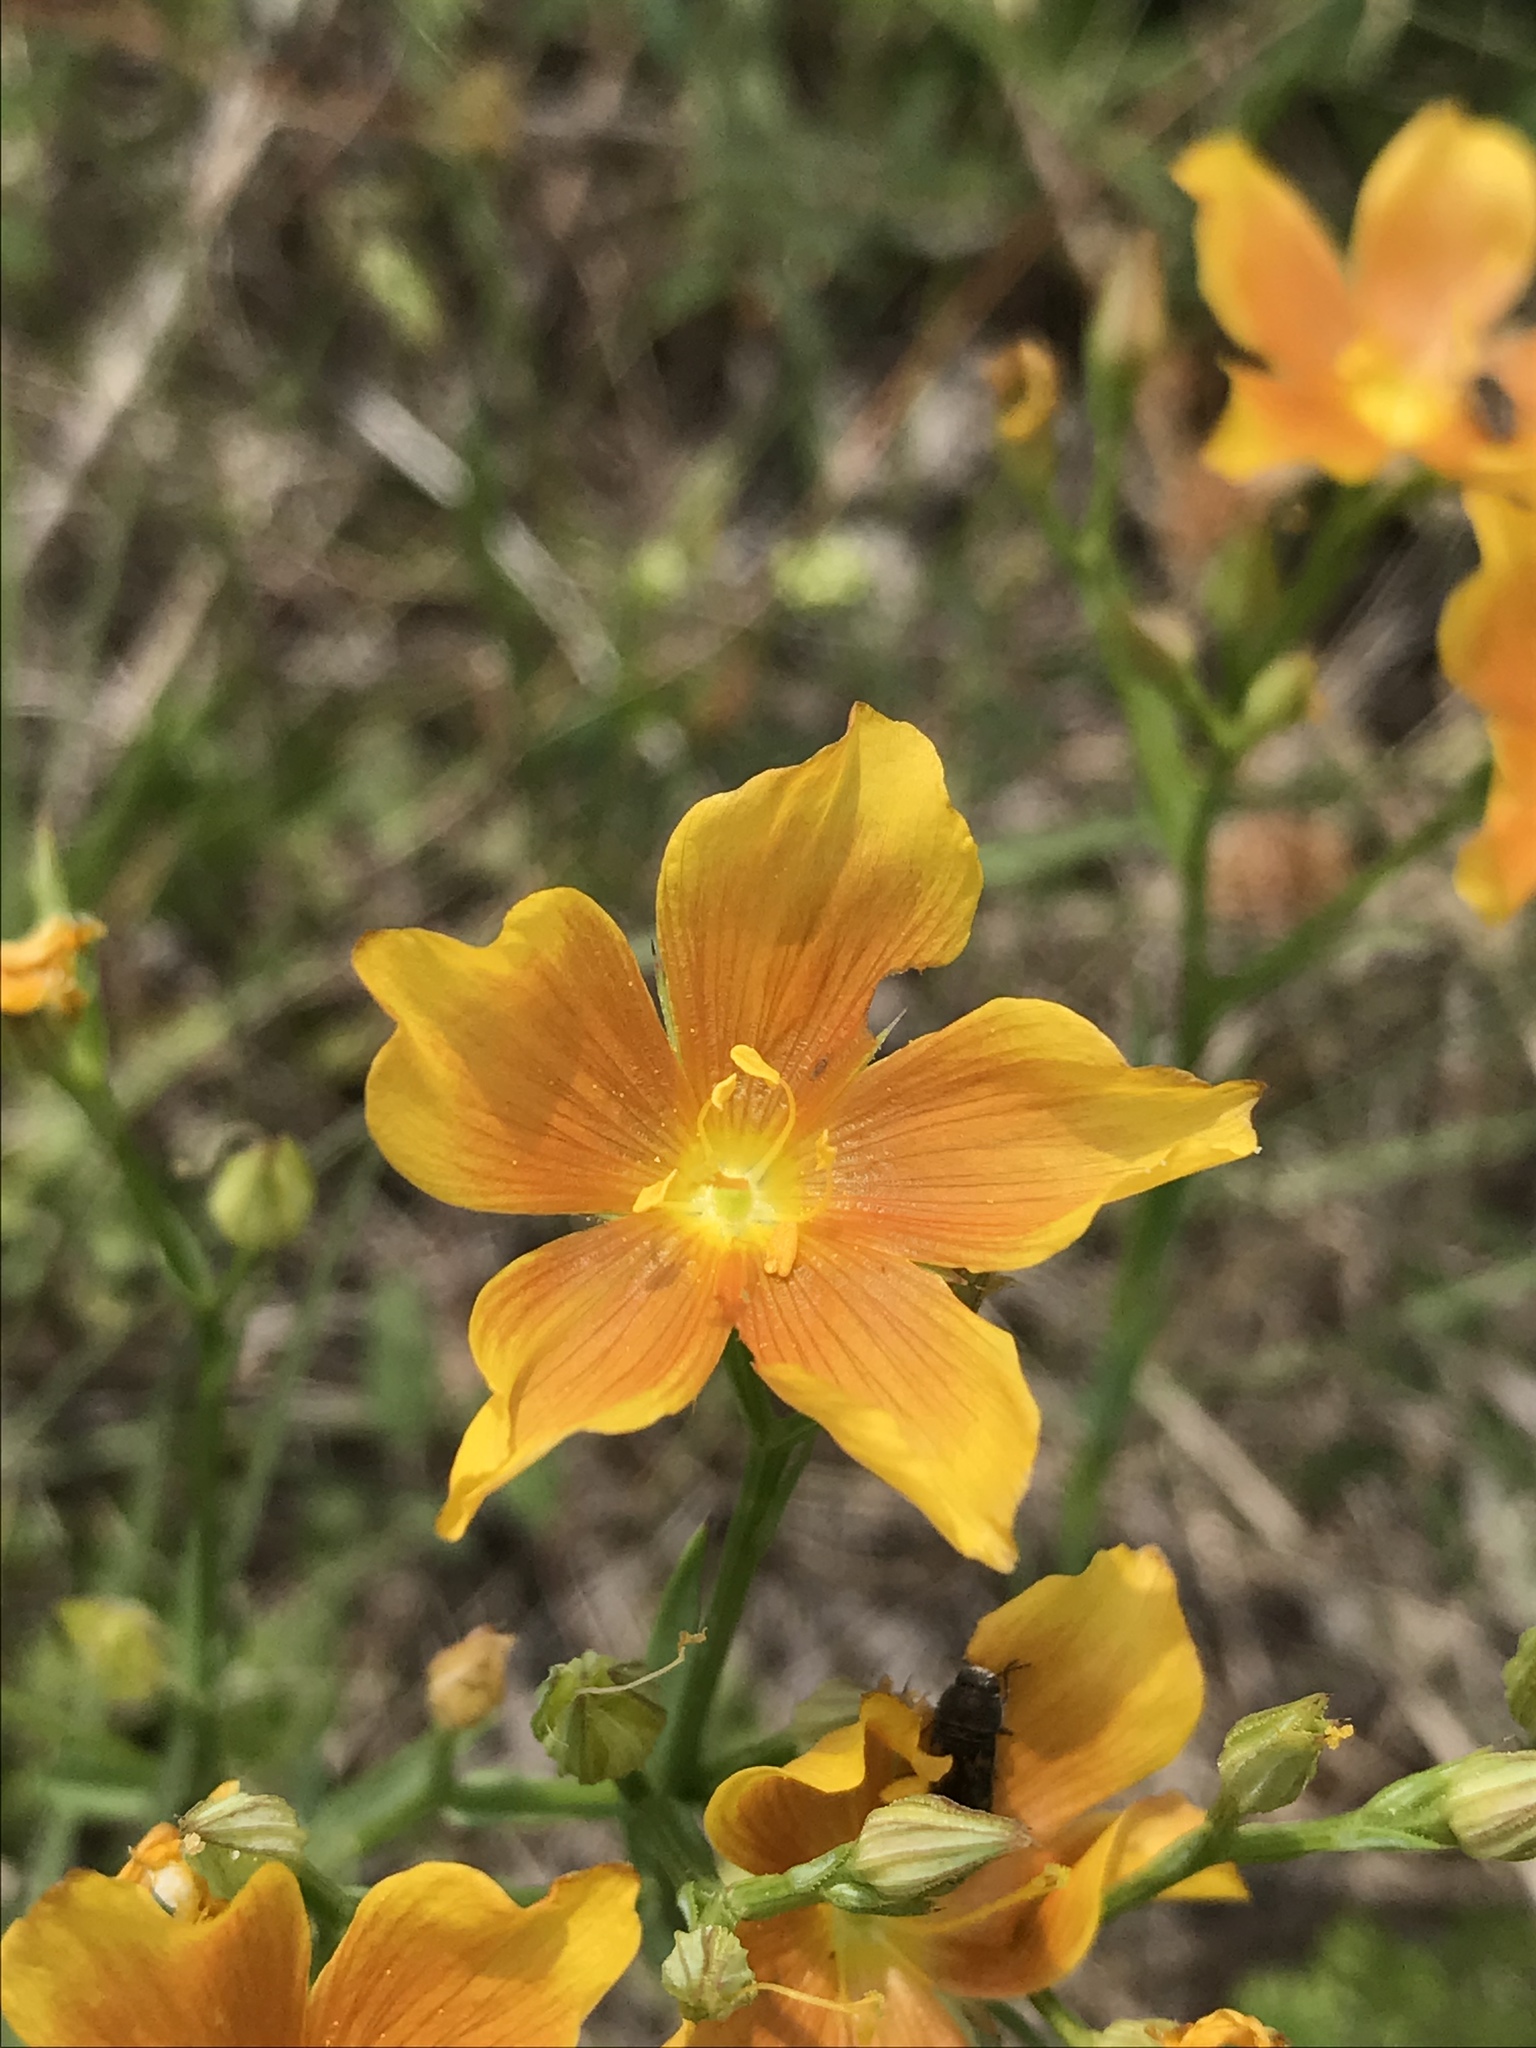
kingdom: Plantae
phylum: Tracheophyta
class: Magnoliopsida
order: Malpighiales
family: Linaceae
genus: Linum
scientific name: Linum rigidum
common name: Stiff-stem flax
